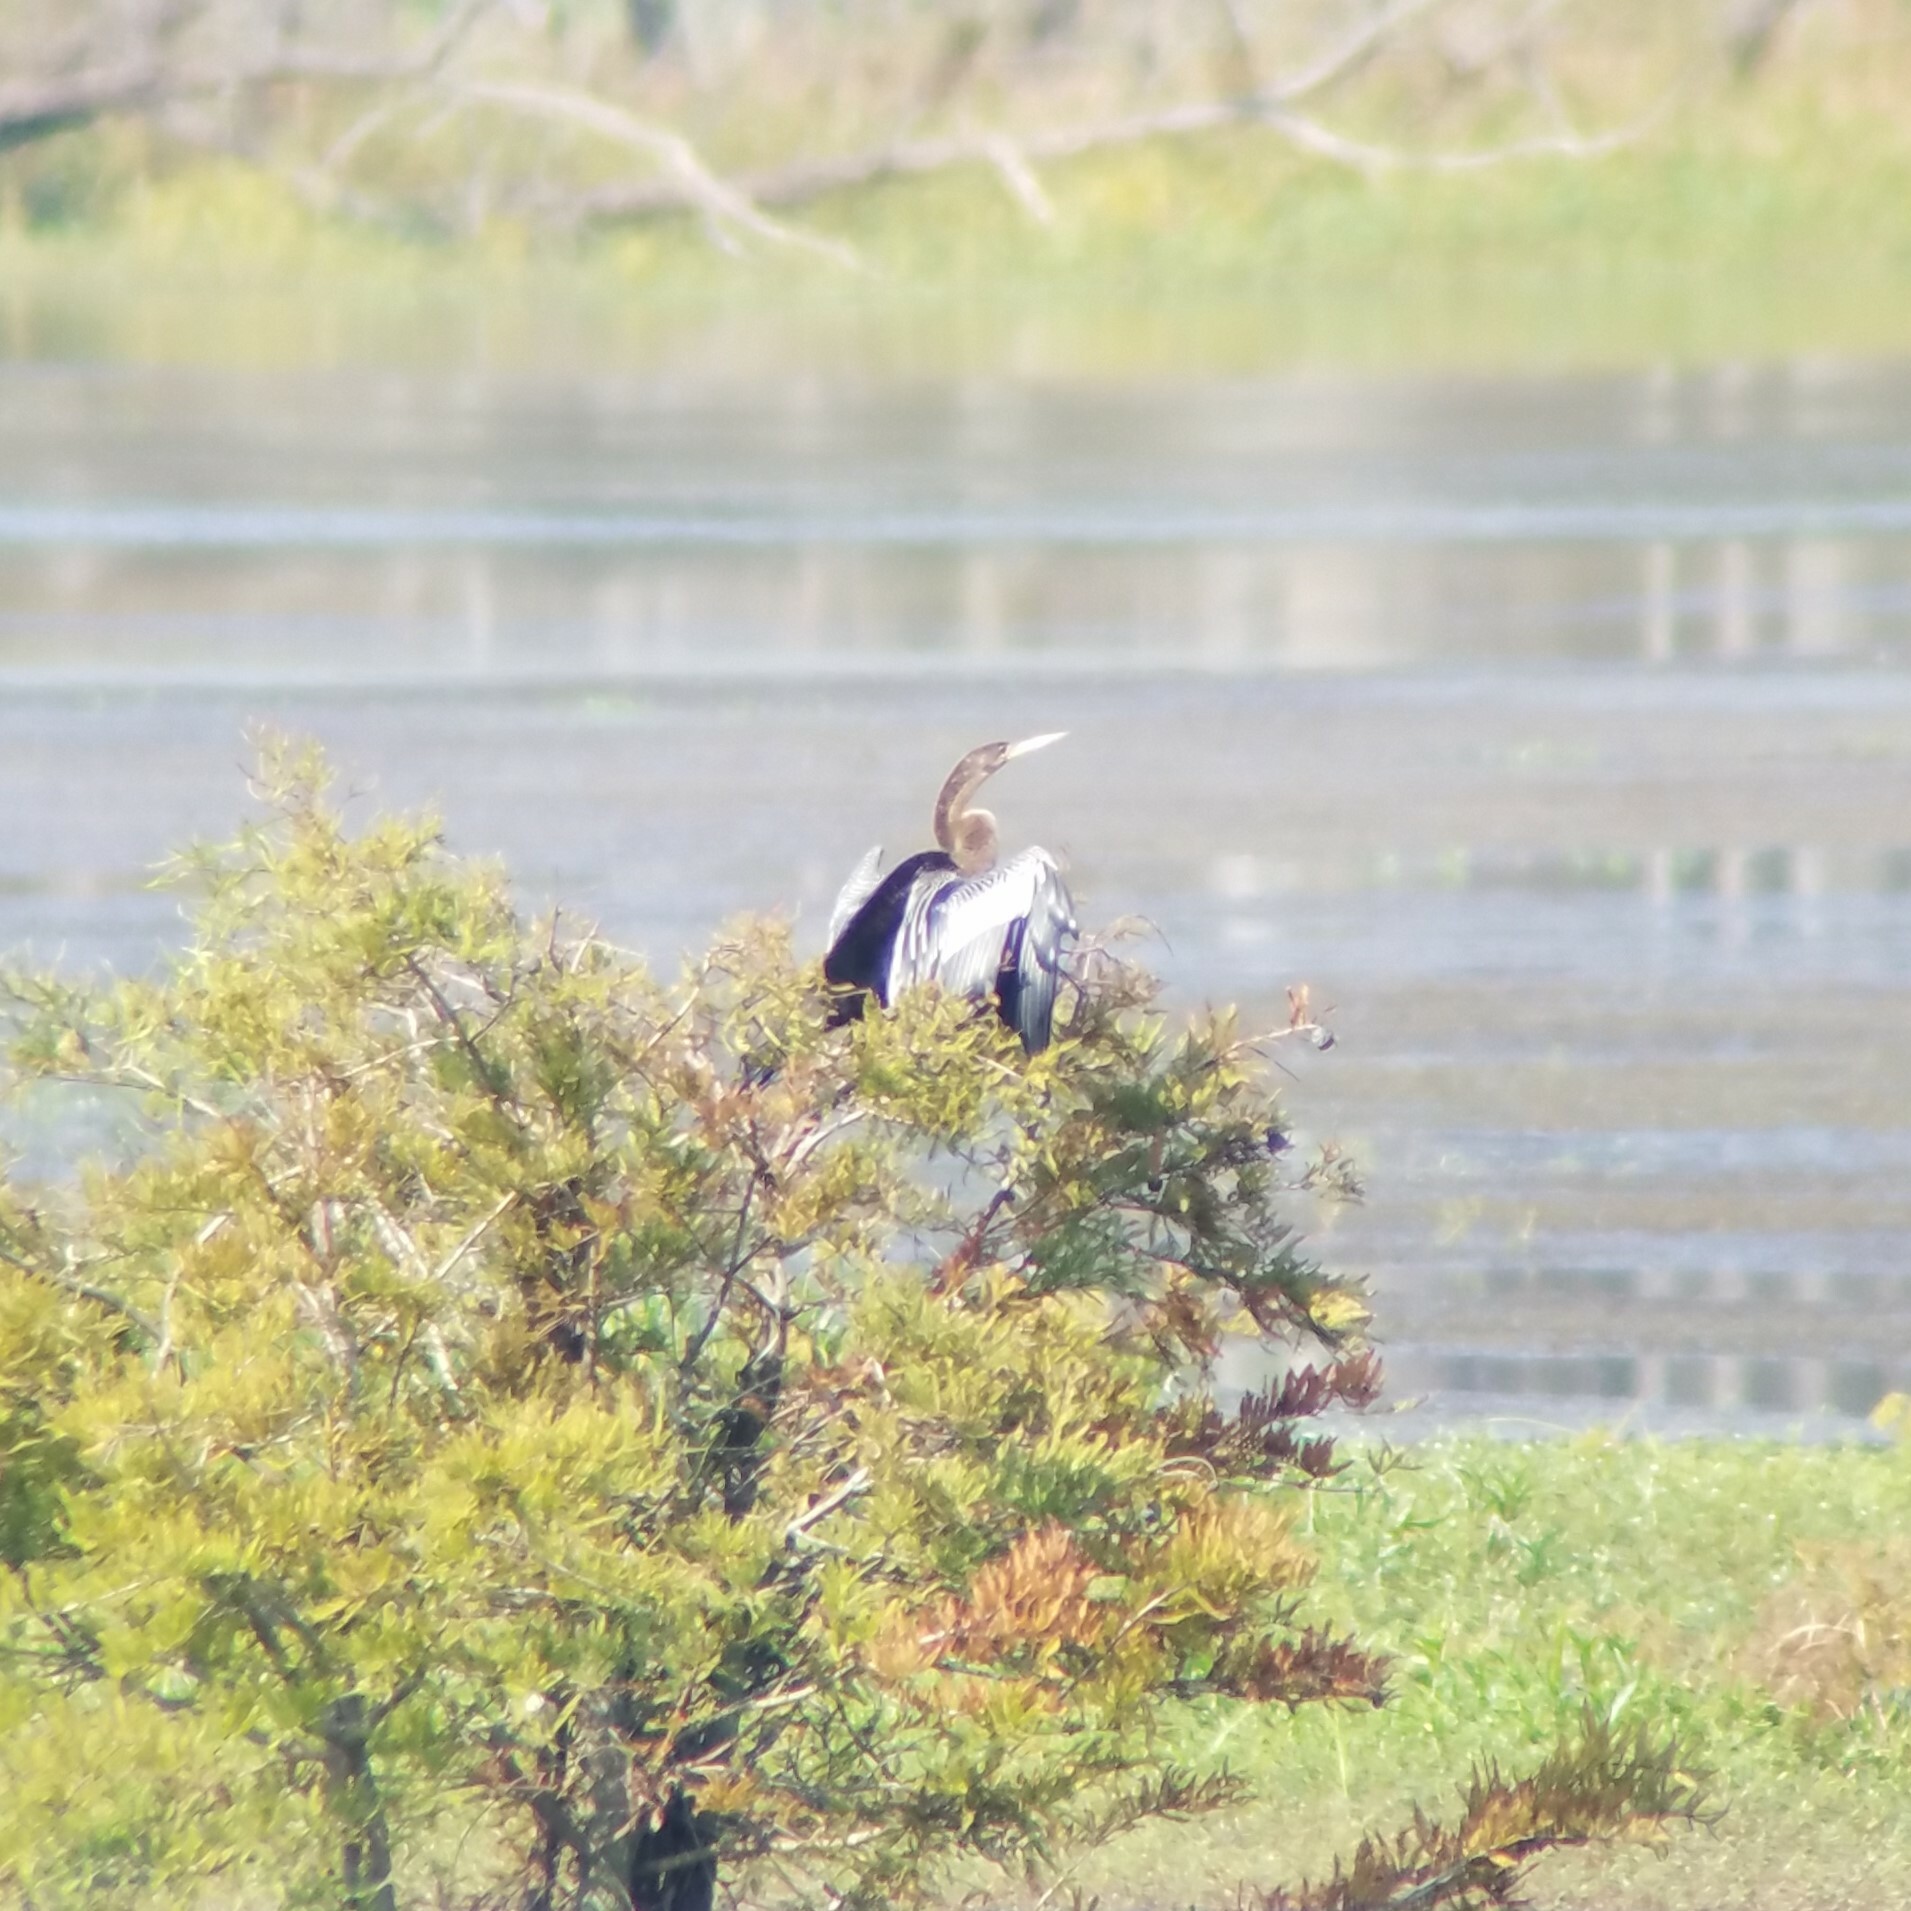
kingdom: Animalia
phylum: Chordata
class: Aves
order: Suliformes
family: Anhingidae
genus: Anhinga
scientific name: Anhinga anhinga
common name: Anhinga
